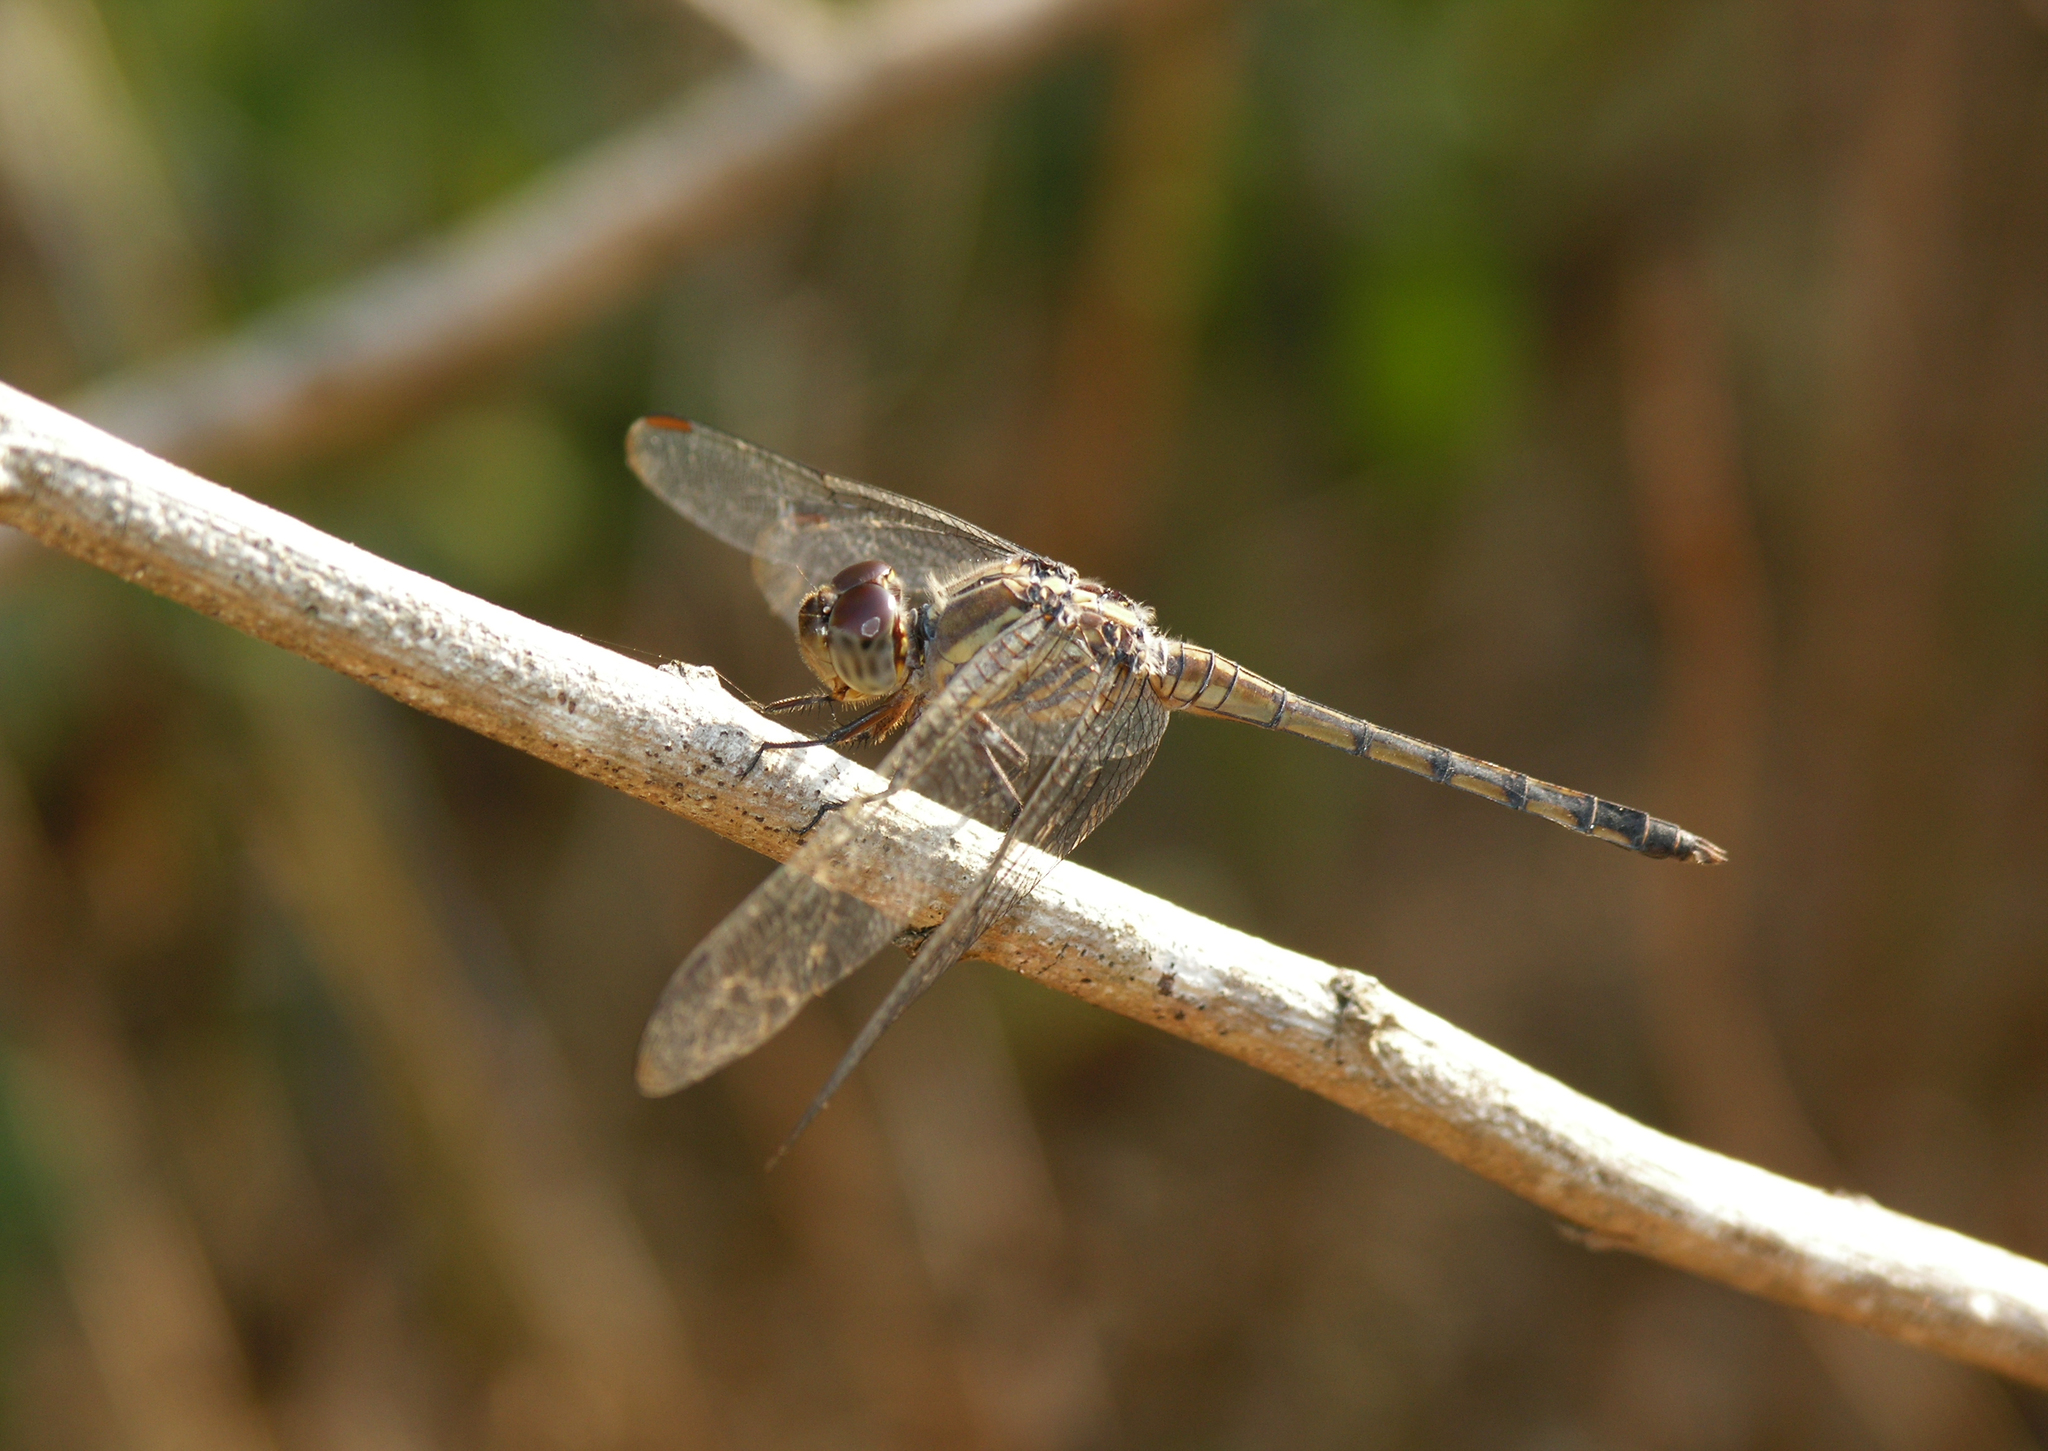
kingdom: Animalia
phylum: Arthropoda
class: Insecta
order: Odonata
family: Libellulidae
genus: Potamarcha
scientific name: Potamarcha congener
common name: Blue chaser
